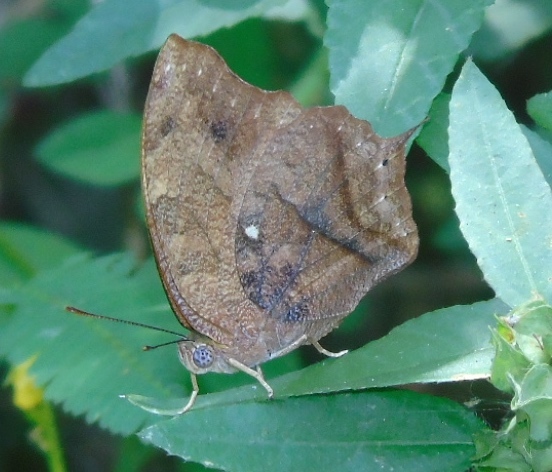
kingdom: Animalia
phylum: Arthropoda
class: Insecta
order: Lepidoptera
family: Nymphalidae
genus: Fountainea
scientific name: Fountainea
